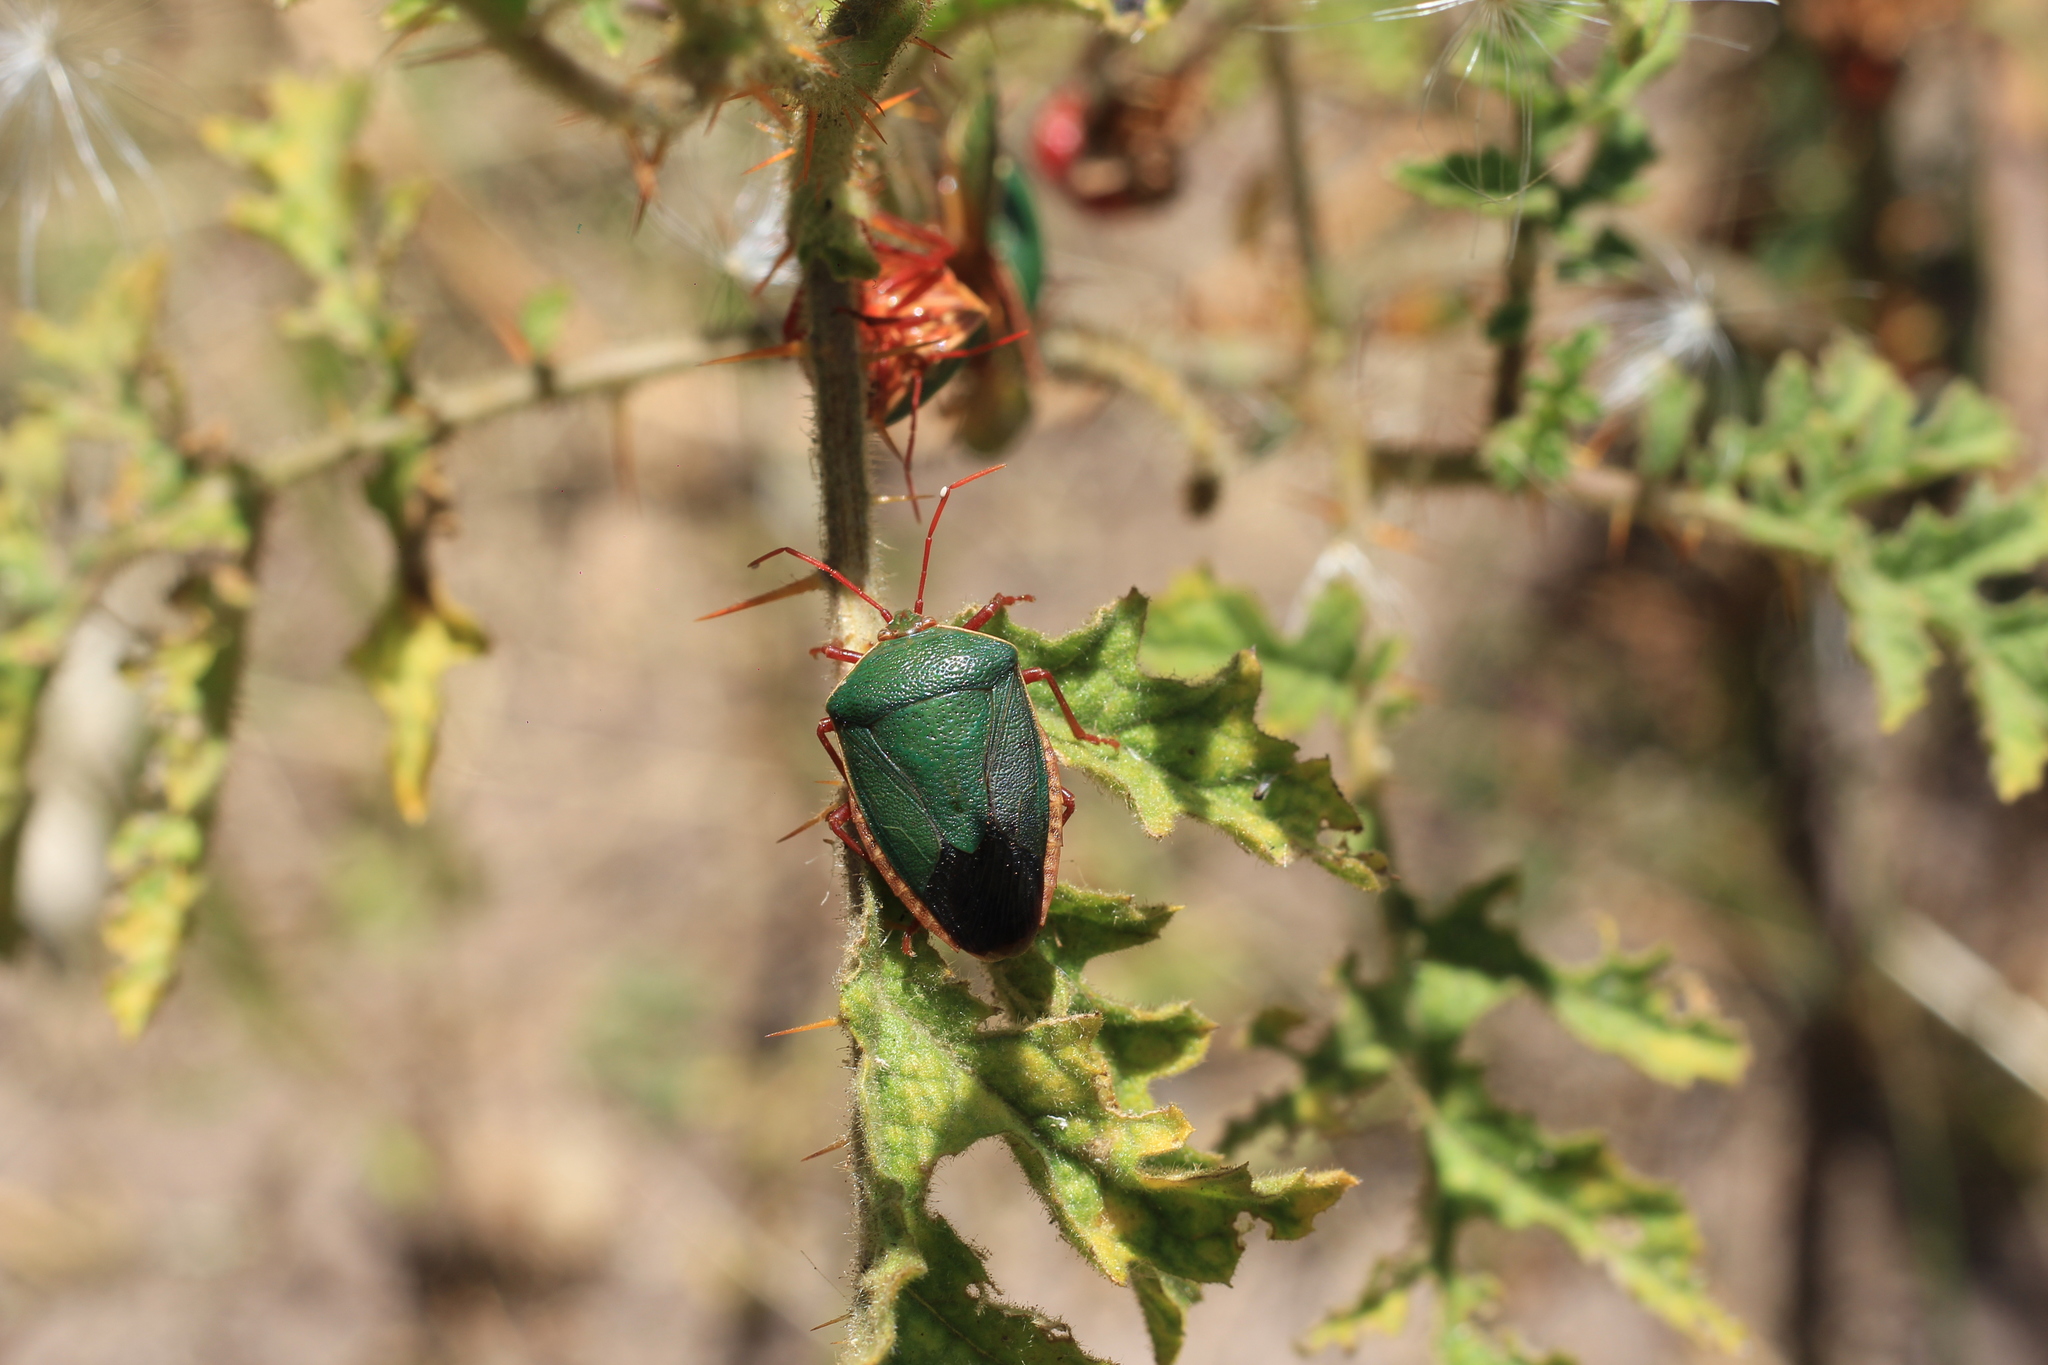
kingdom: Animalia
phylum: Arthropoda
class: Insecta
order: Hemiptera
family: Pentatomidae
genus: Edessa
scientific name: Edessa
